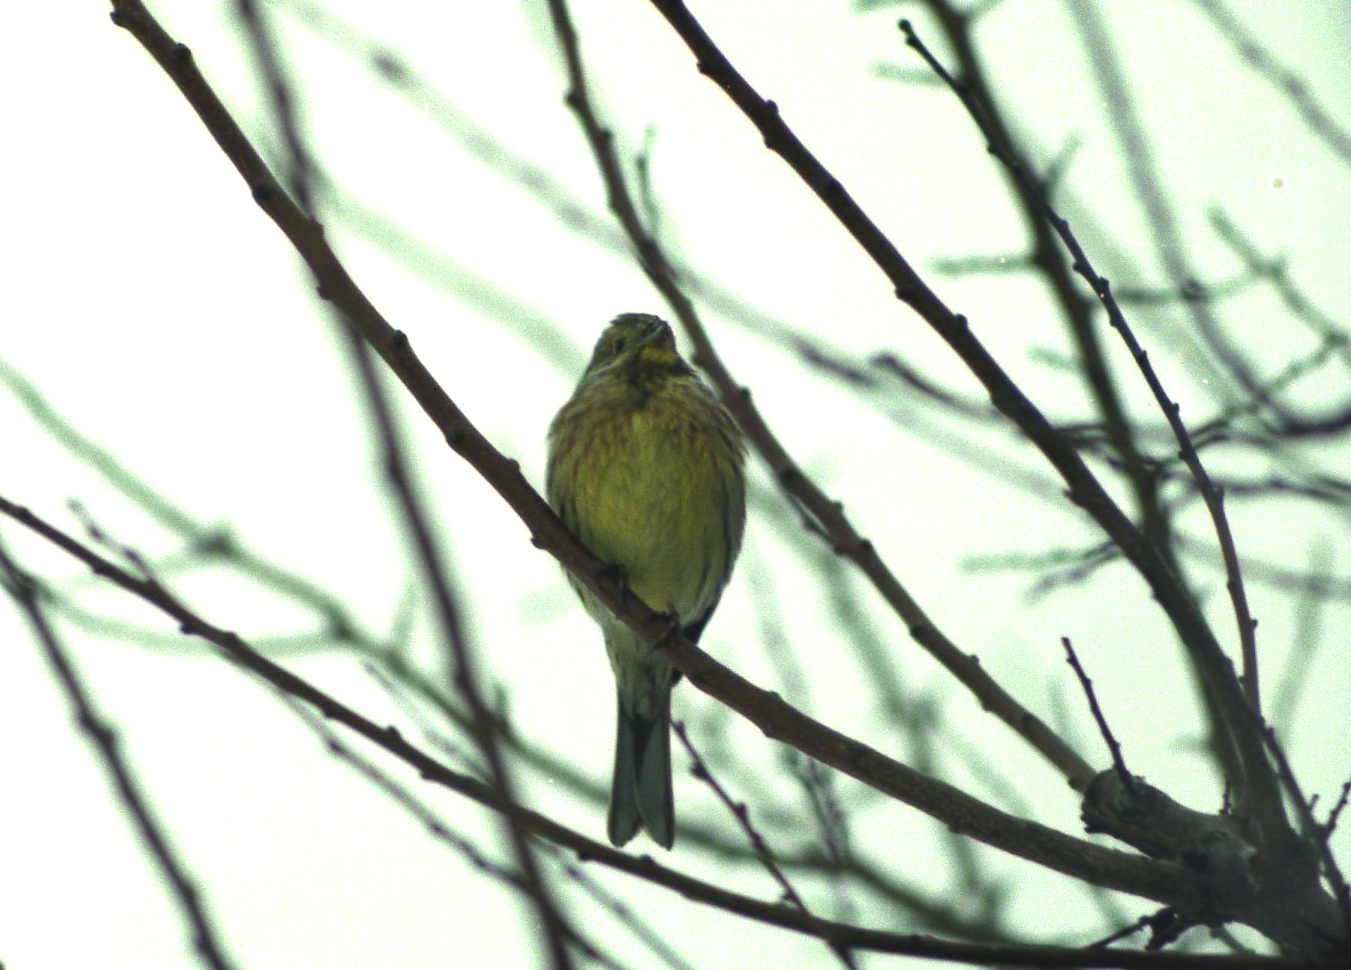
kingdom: Animalia
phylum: Chordata
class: Aves
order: Passeriformes
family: Emberizidae
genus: Emberiza
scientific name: Emberiza citrinella
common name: Yellowhammer
